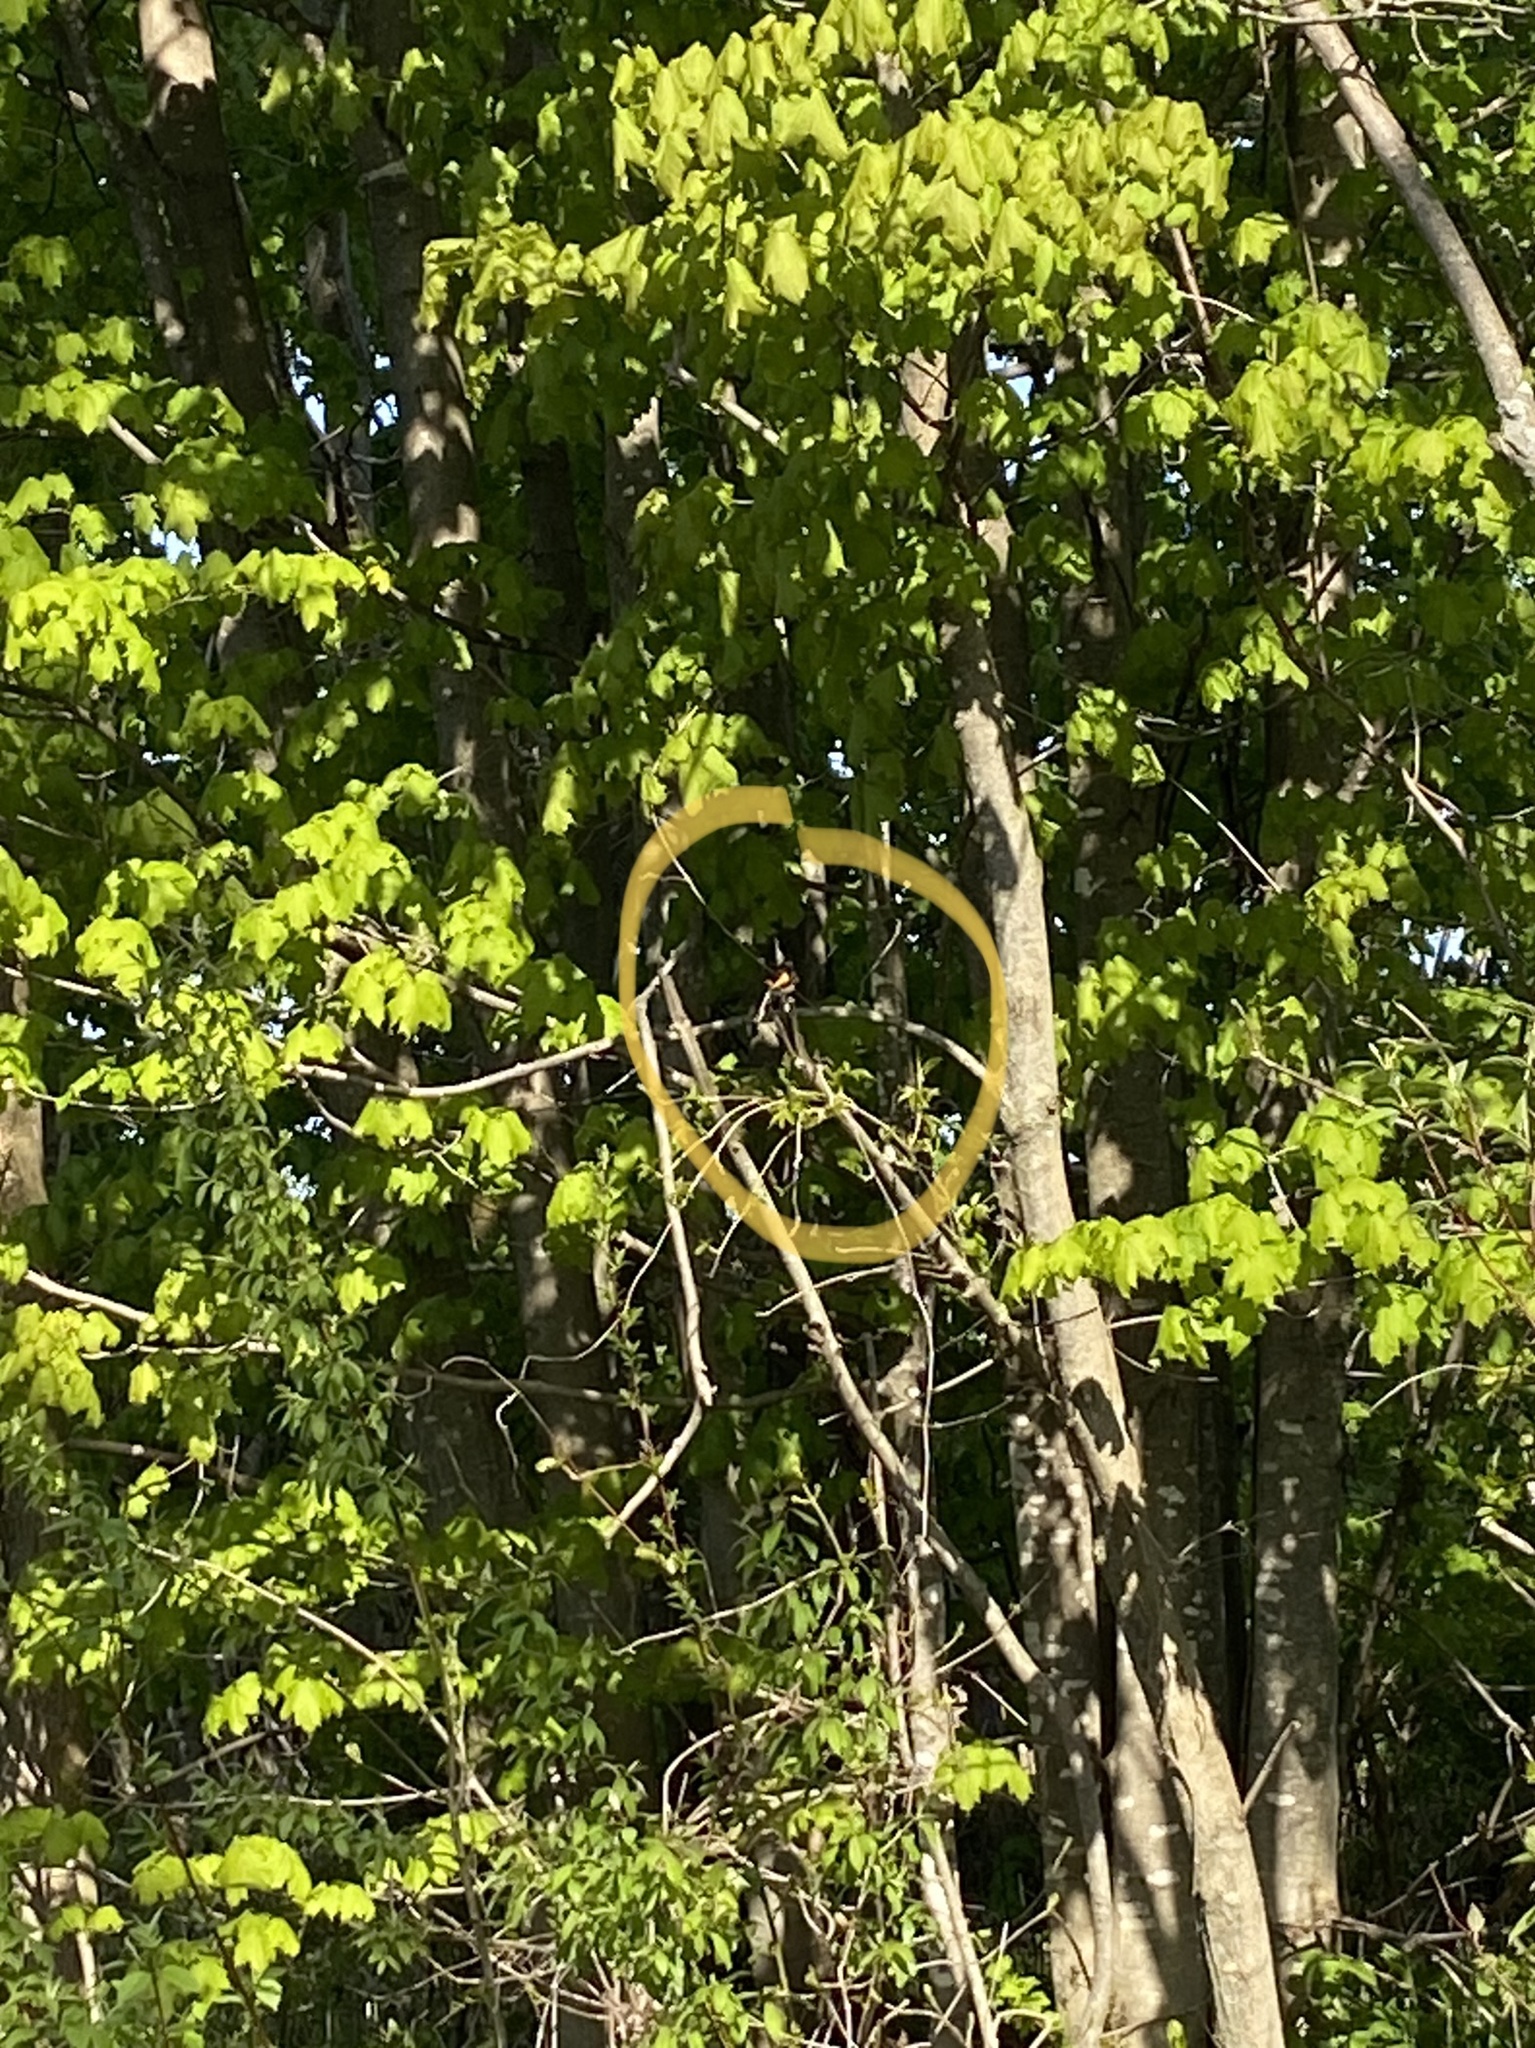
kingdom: Animalia
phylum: Chordata
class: Aves
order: Passeriformes
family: Parulidae
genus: Setophaga
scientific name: Setophaga ruticilla
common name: American redstart
